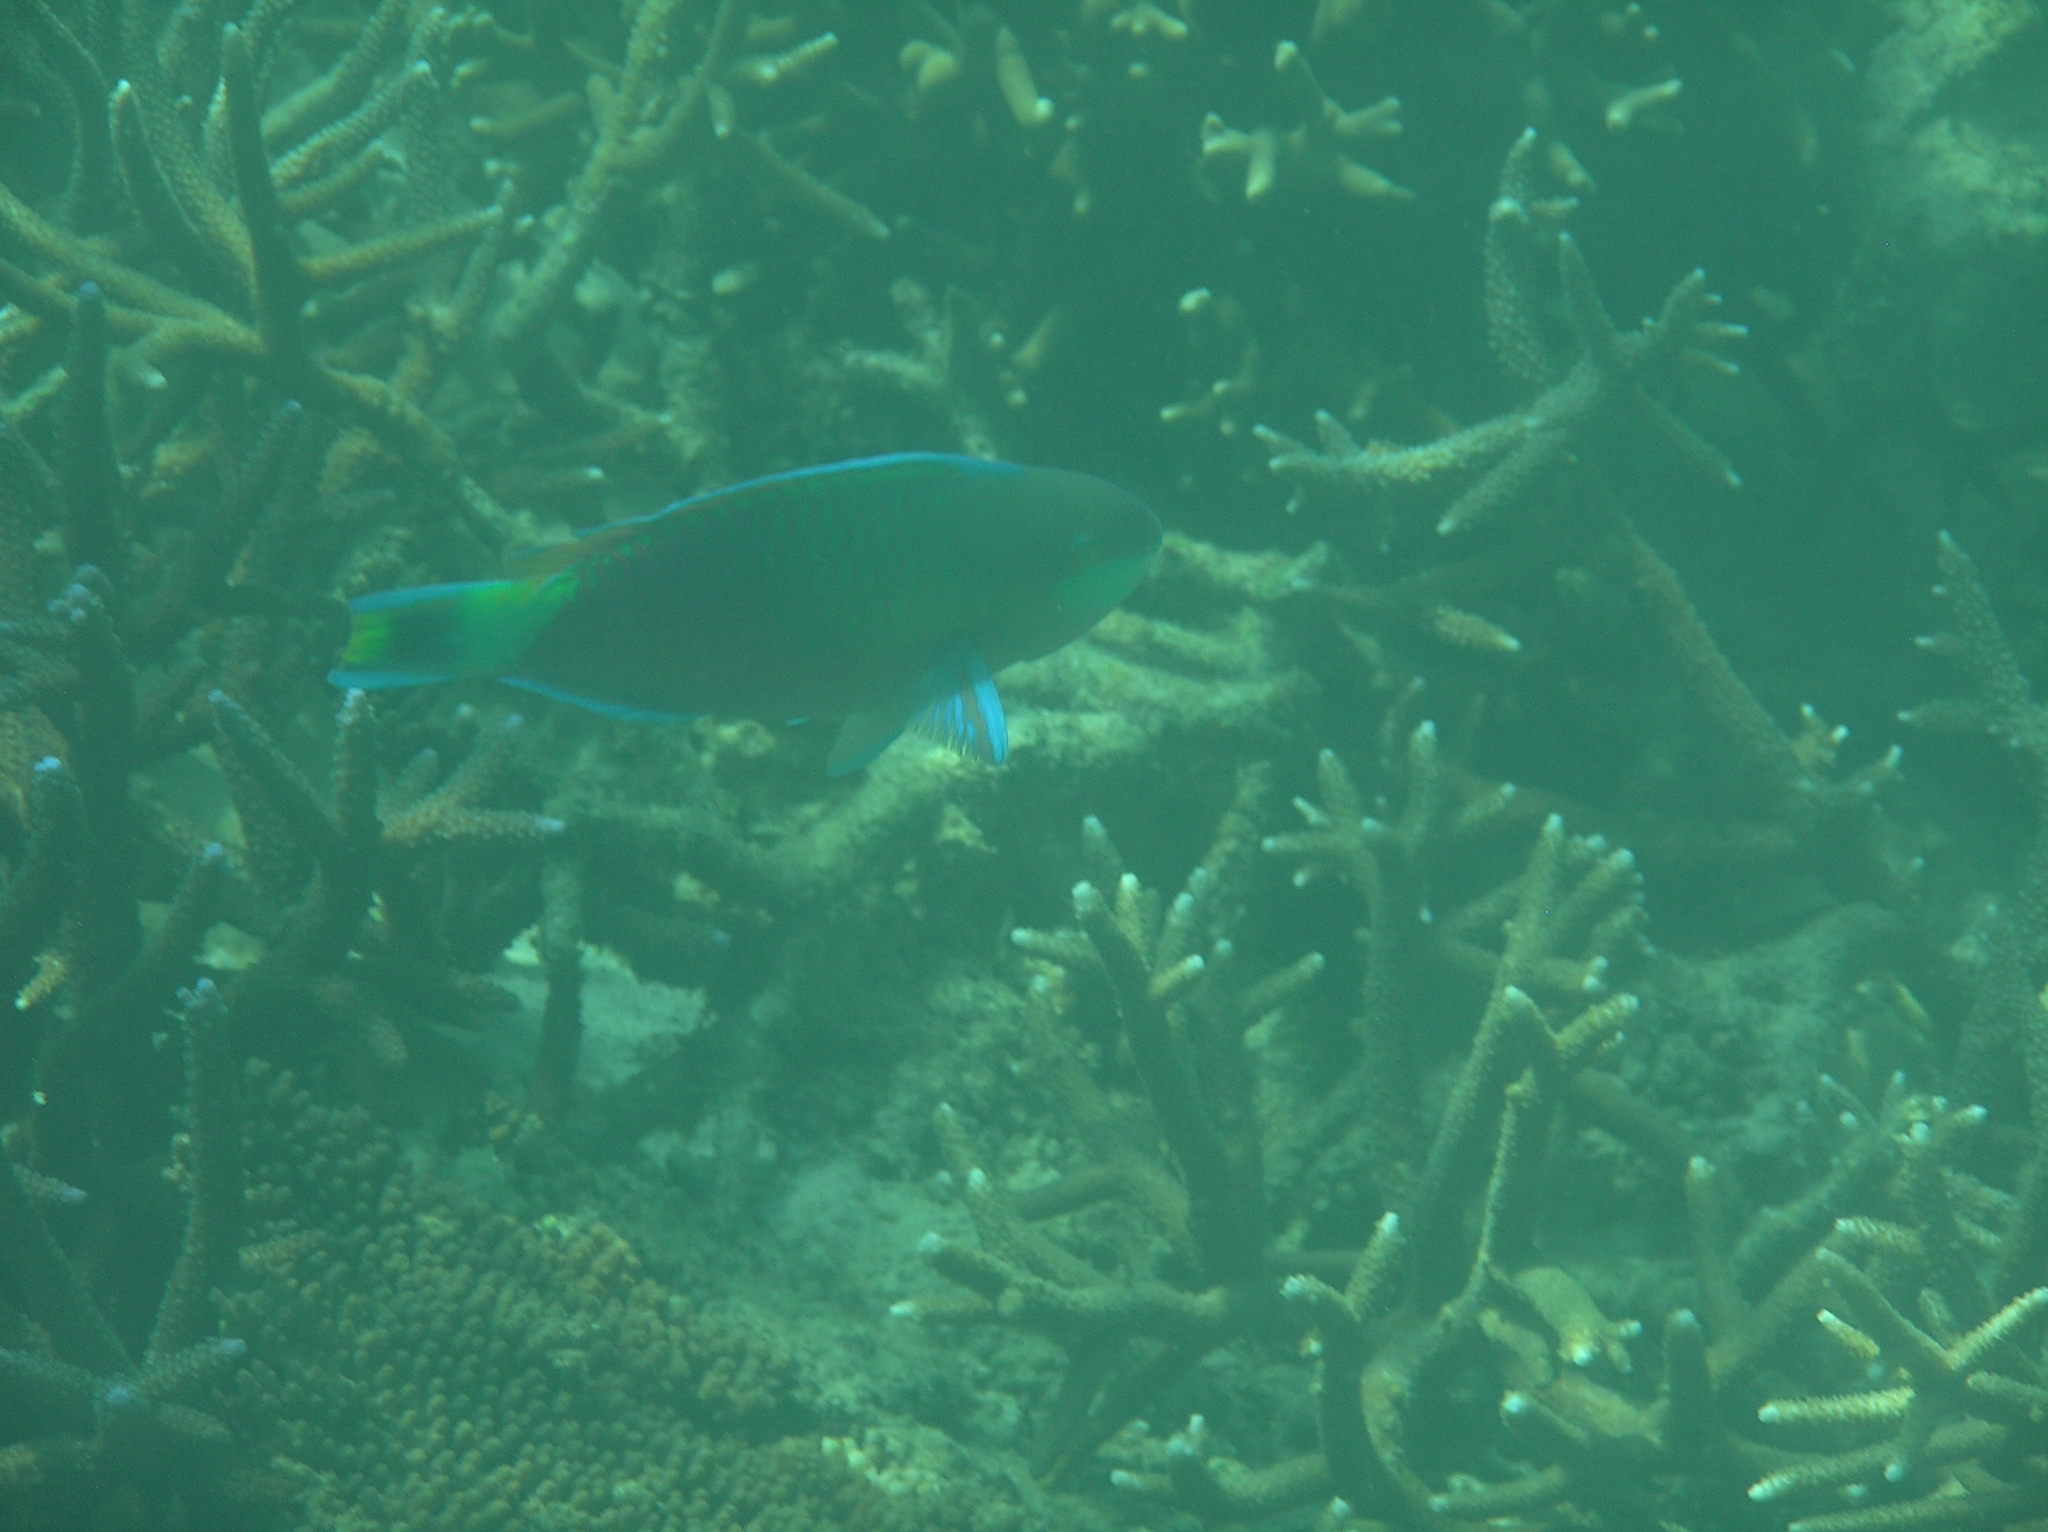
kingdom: Animalia
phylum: Chordata
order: Perciformes
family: Scaridae
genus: Scarus
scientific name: Scarus quoyi
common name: Quoy's parrotfish
